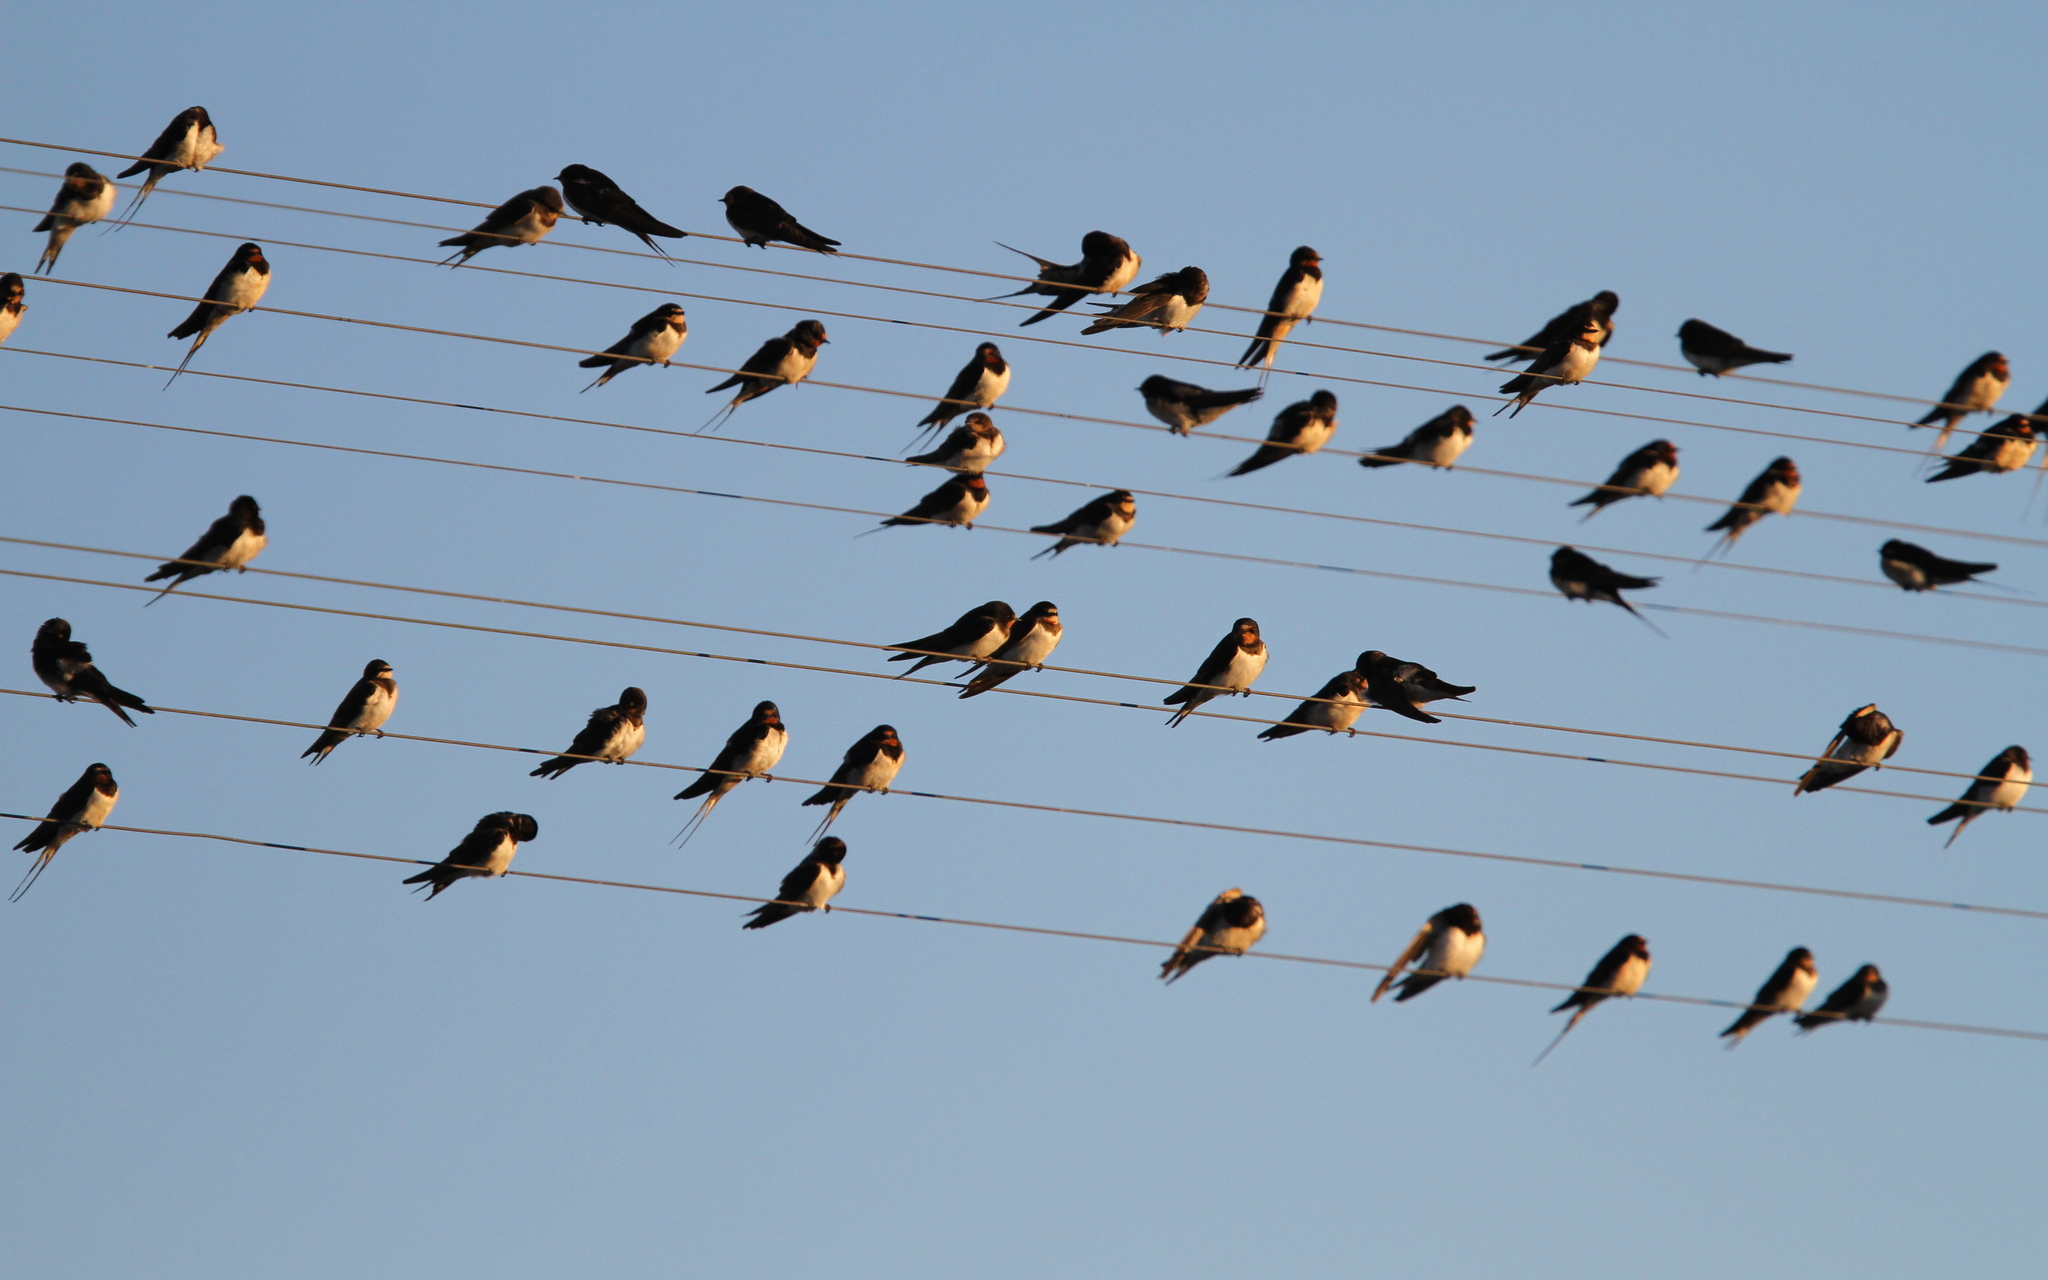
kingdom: Animalia
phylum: Chordata
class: Aves
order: Passeriformes
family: Hirundinidae
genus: Hirundo
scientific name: Hirundo rustica
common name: Barn swallow
